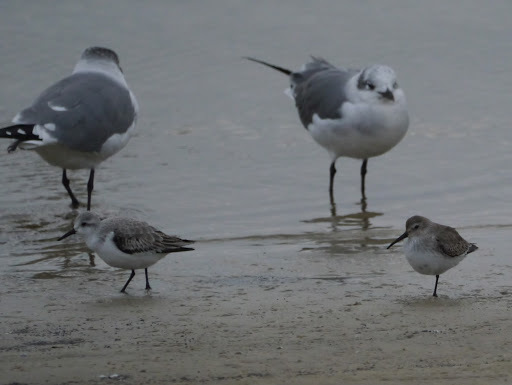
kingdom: Animalia
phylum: Chordata
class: Aves
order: Charadriiformes
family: Scolopacidae
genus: Calidris
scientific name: Calidris alba
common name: Sanderling
